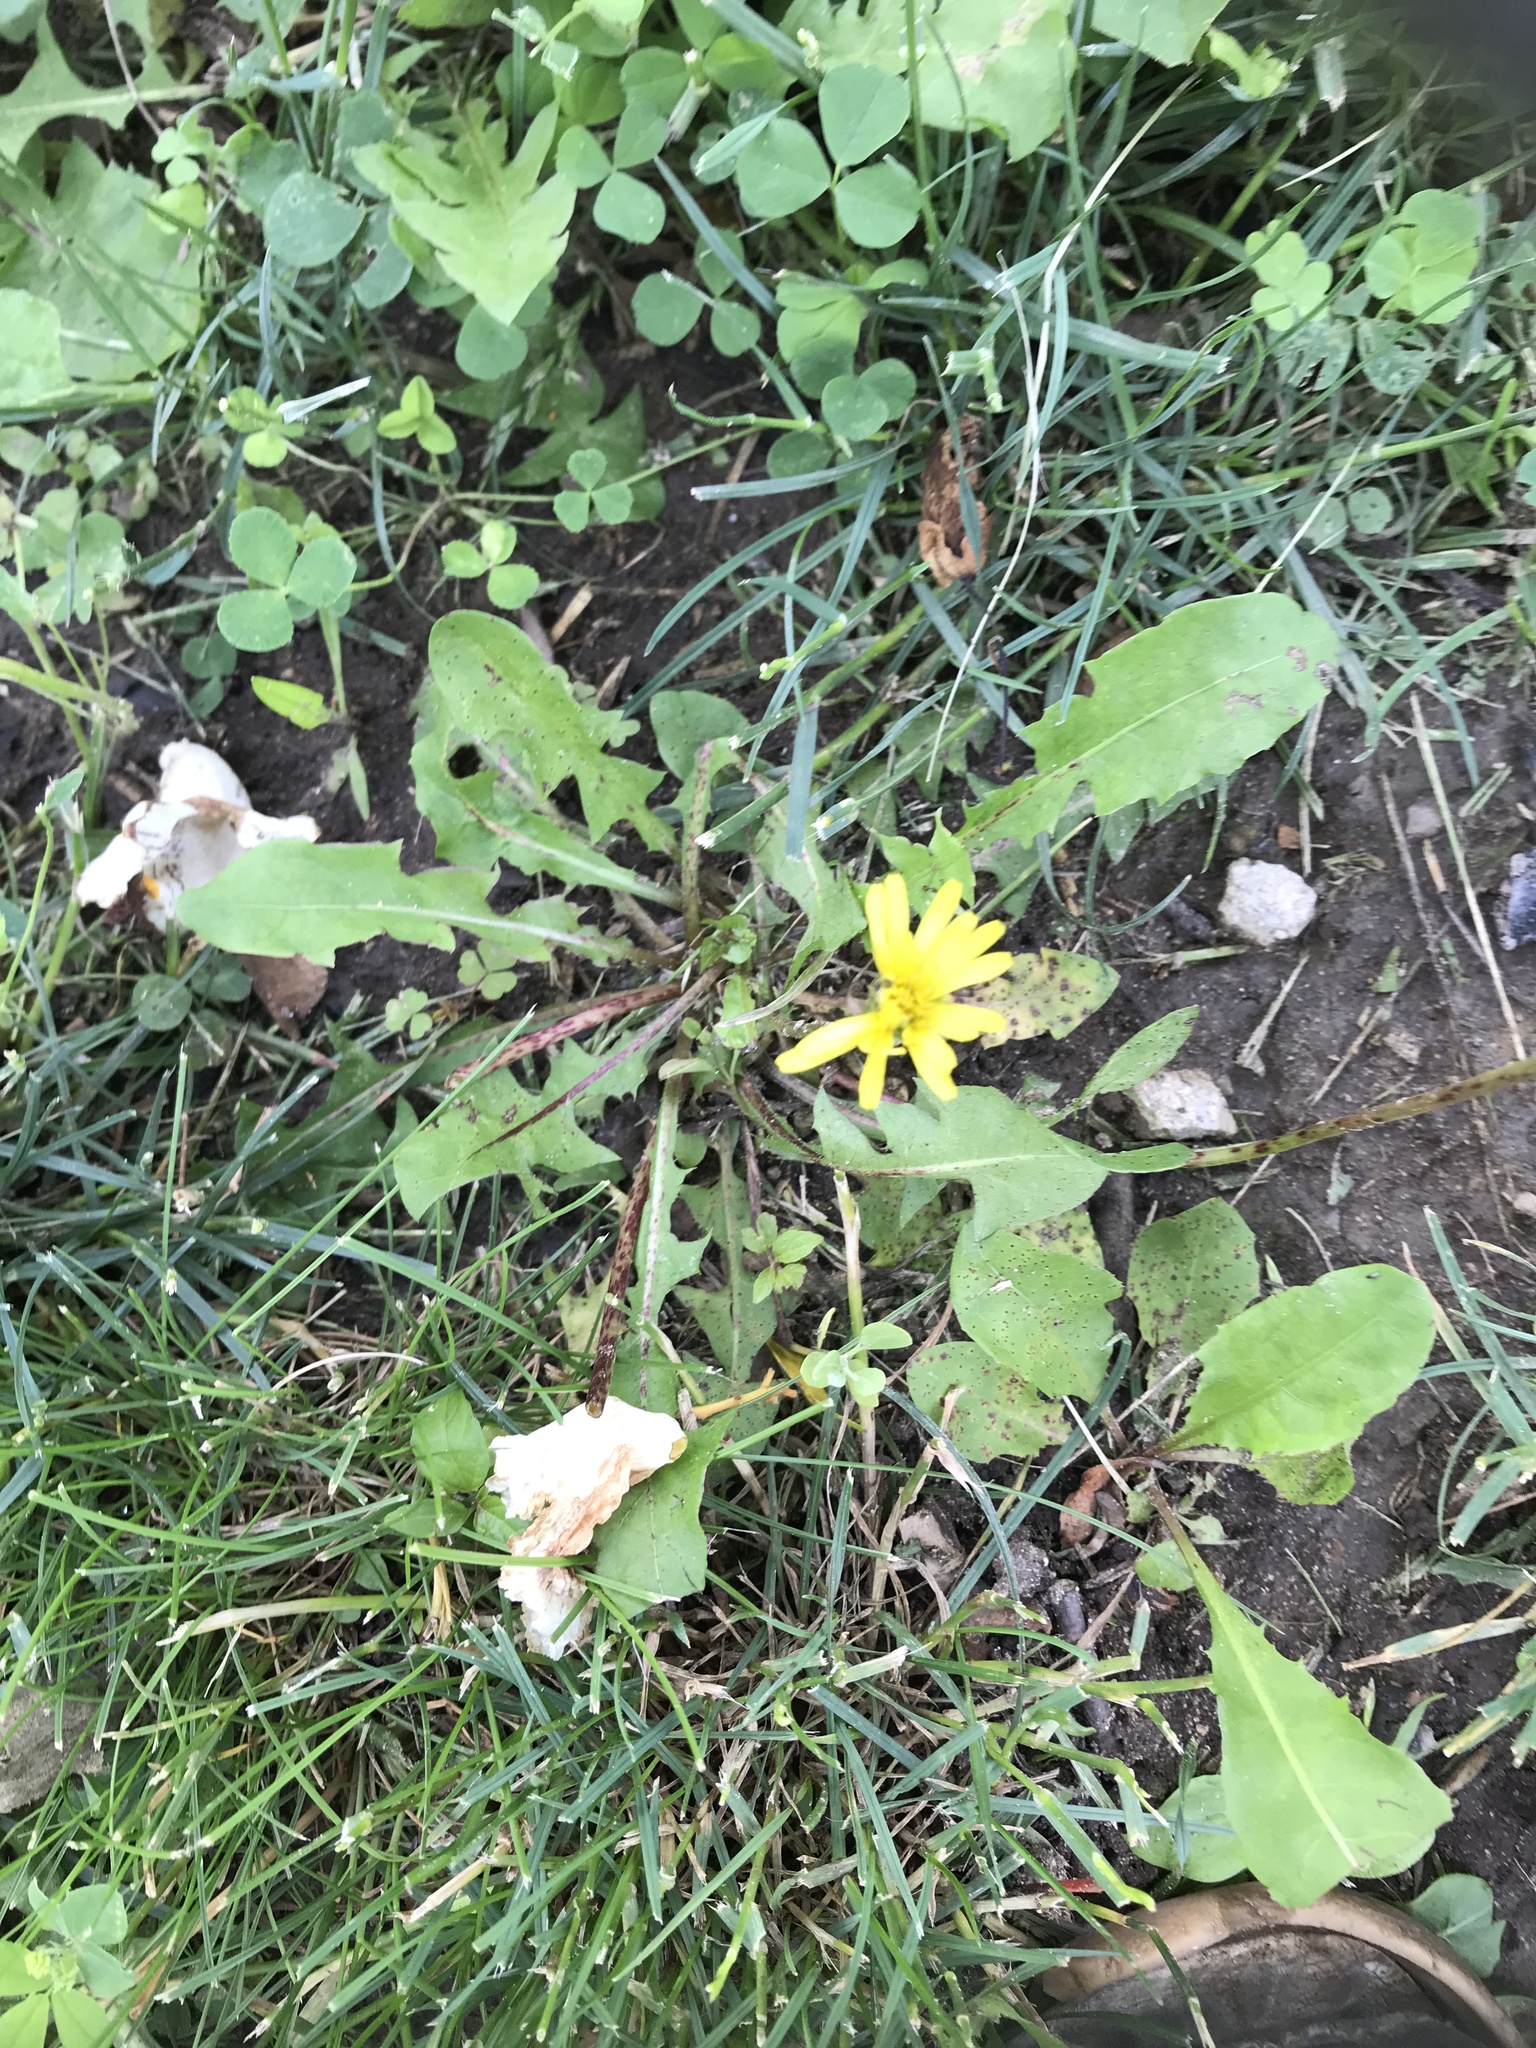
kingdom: Plantae
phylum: Tracheophyta
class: Magnoliopsida
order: Asterales
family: Asteraceae
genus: Taraxacum
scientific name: Taraxacum officinale
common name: Common dandelion
